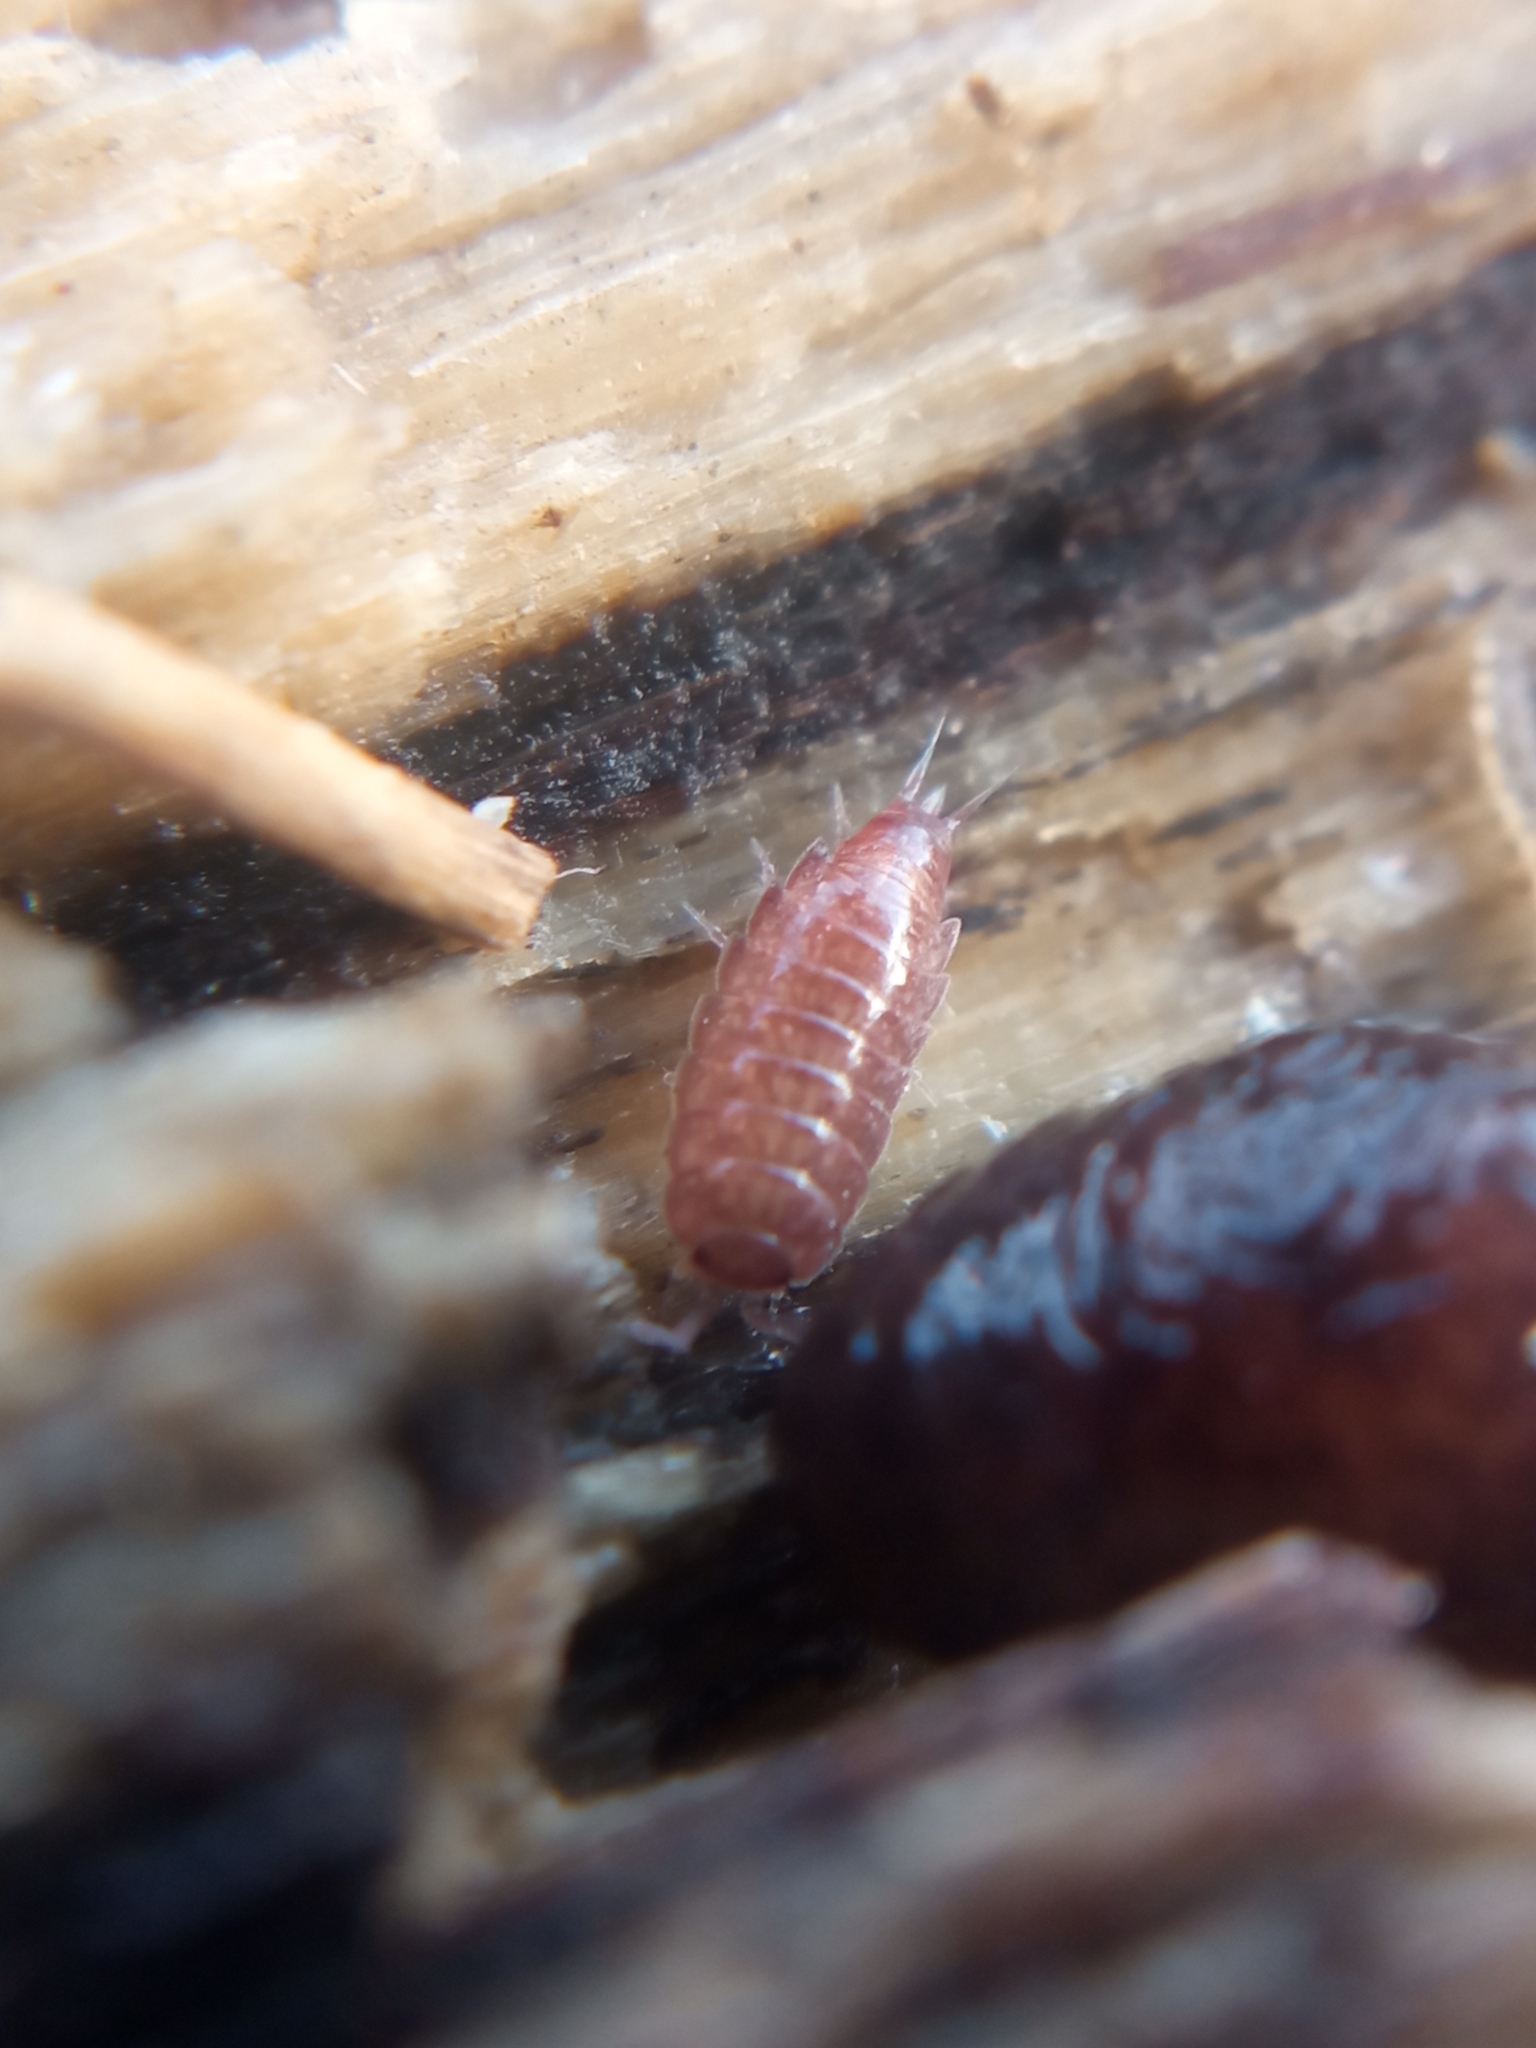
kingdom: Animalia
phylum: Arthropoda
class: Malacostraca
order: Isopoda
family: Trichoniscidae
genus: Trichoniscus
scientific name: Trichoniscus
